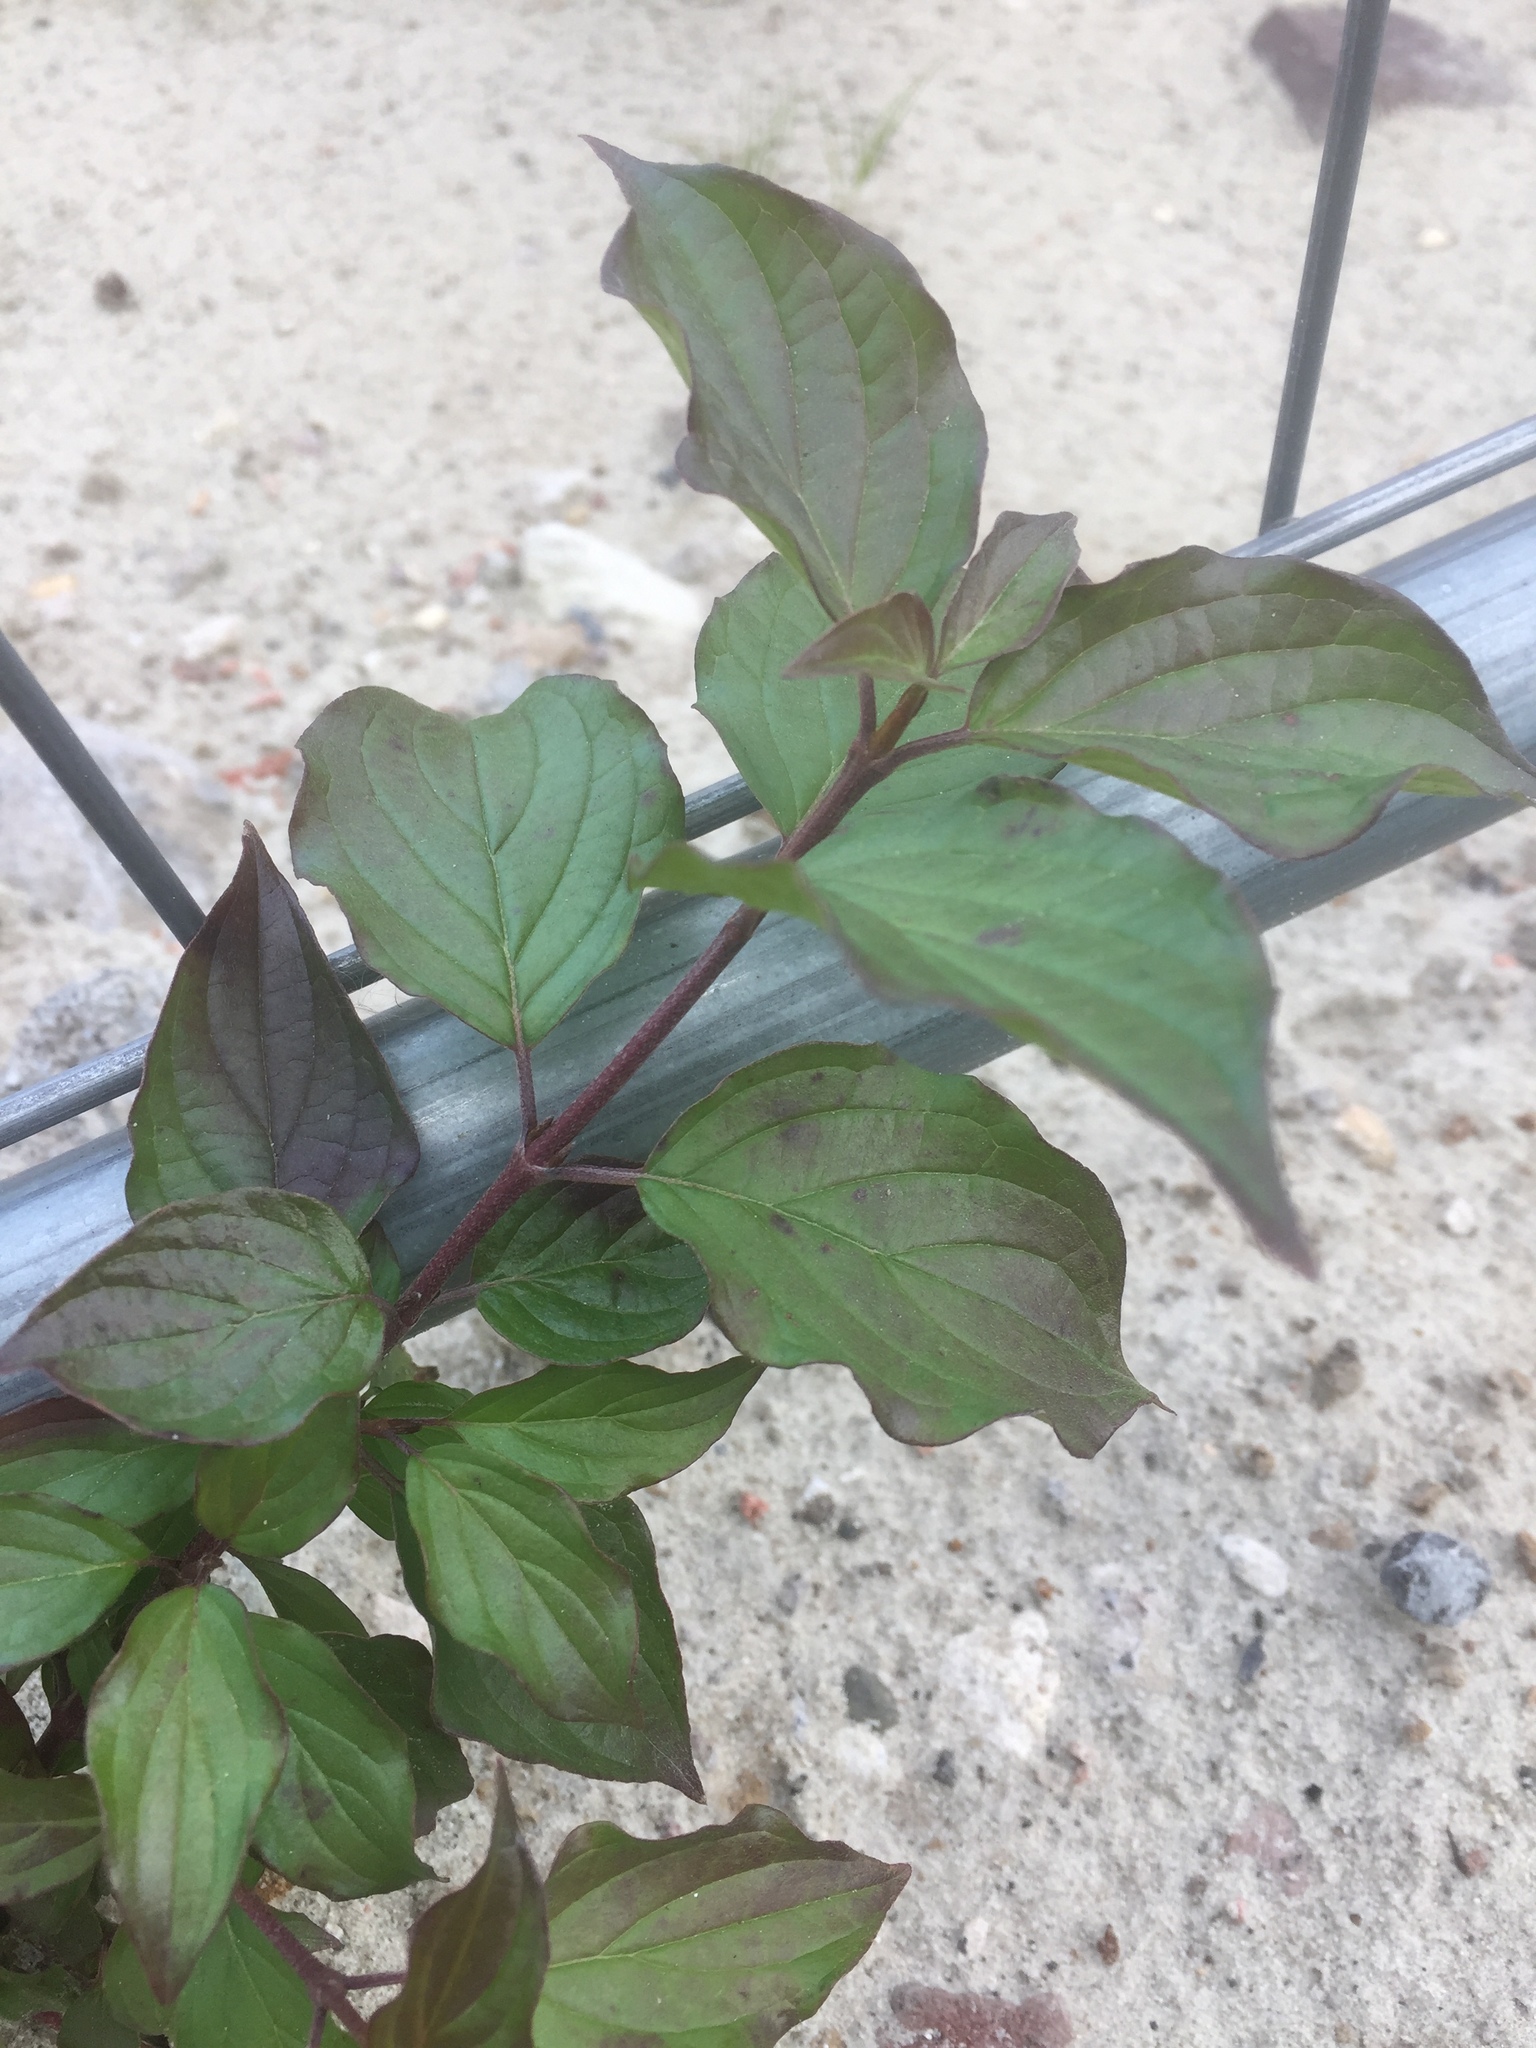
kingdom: Plantae
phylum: Tracheophyta
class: Magnoliopsida
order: Cornales
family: Cornaceae
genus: Cornus
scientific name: Cornus sanguinea
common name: Dogwood
